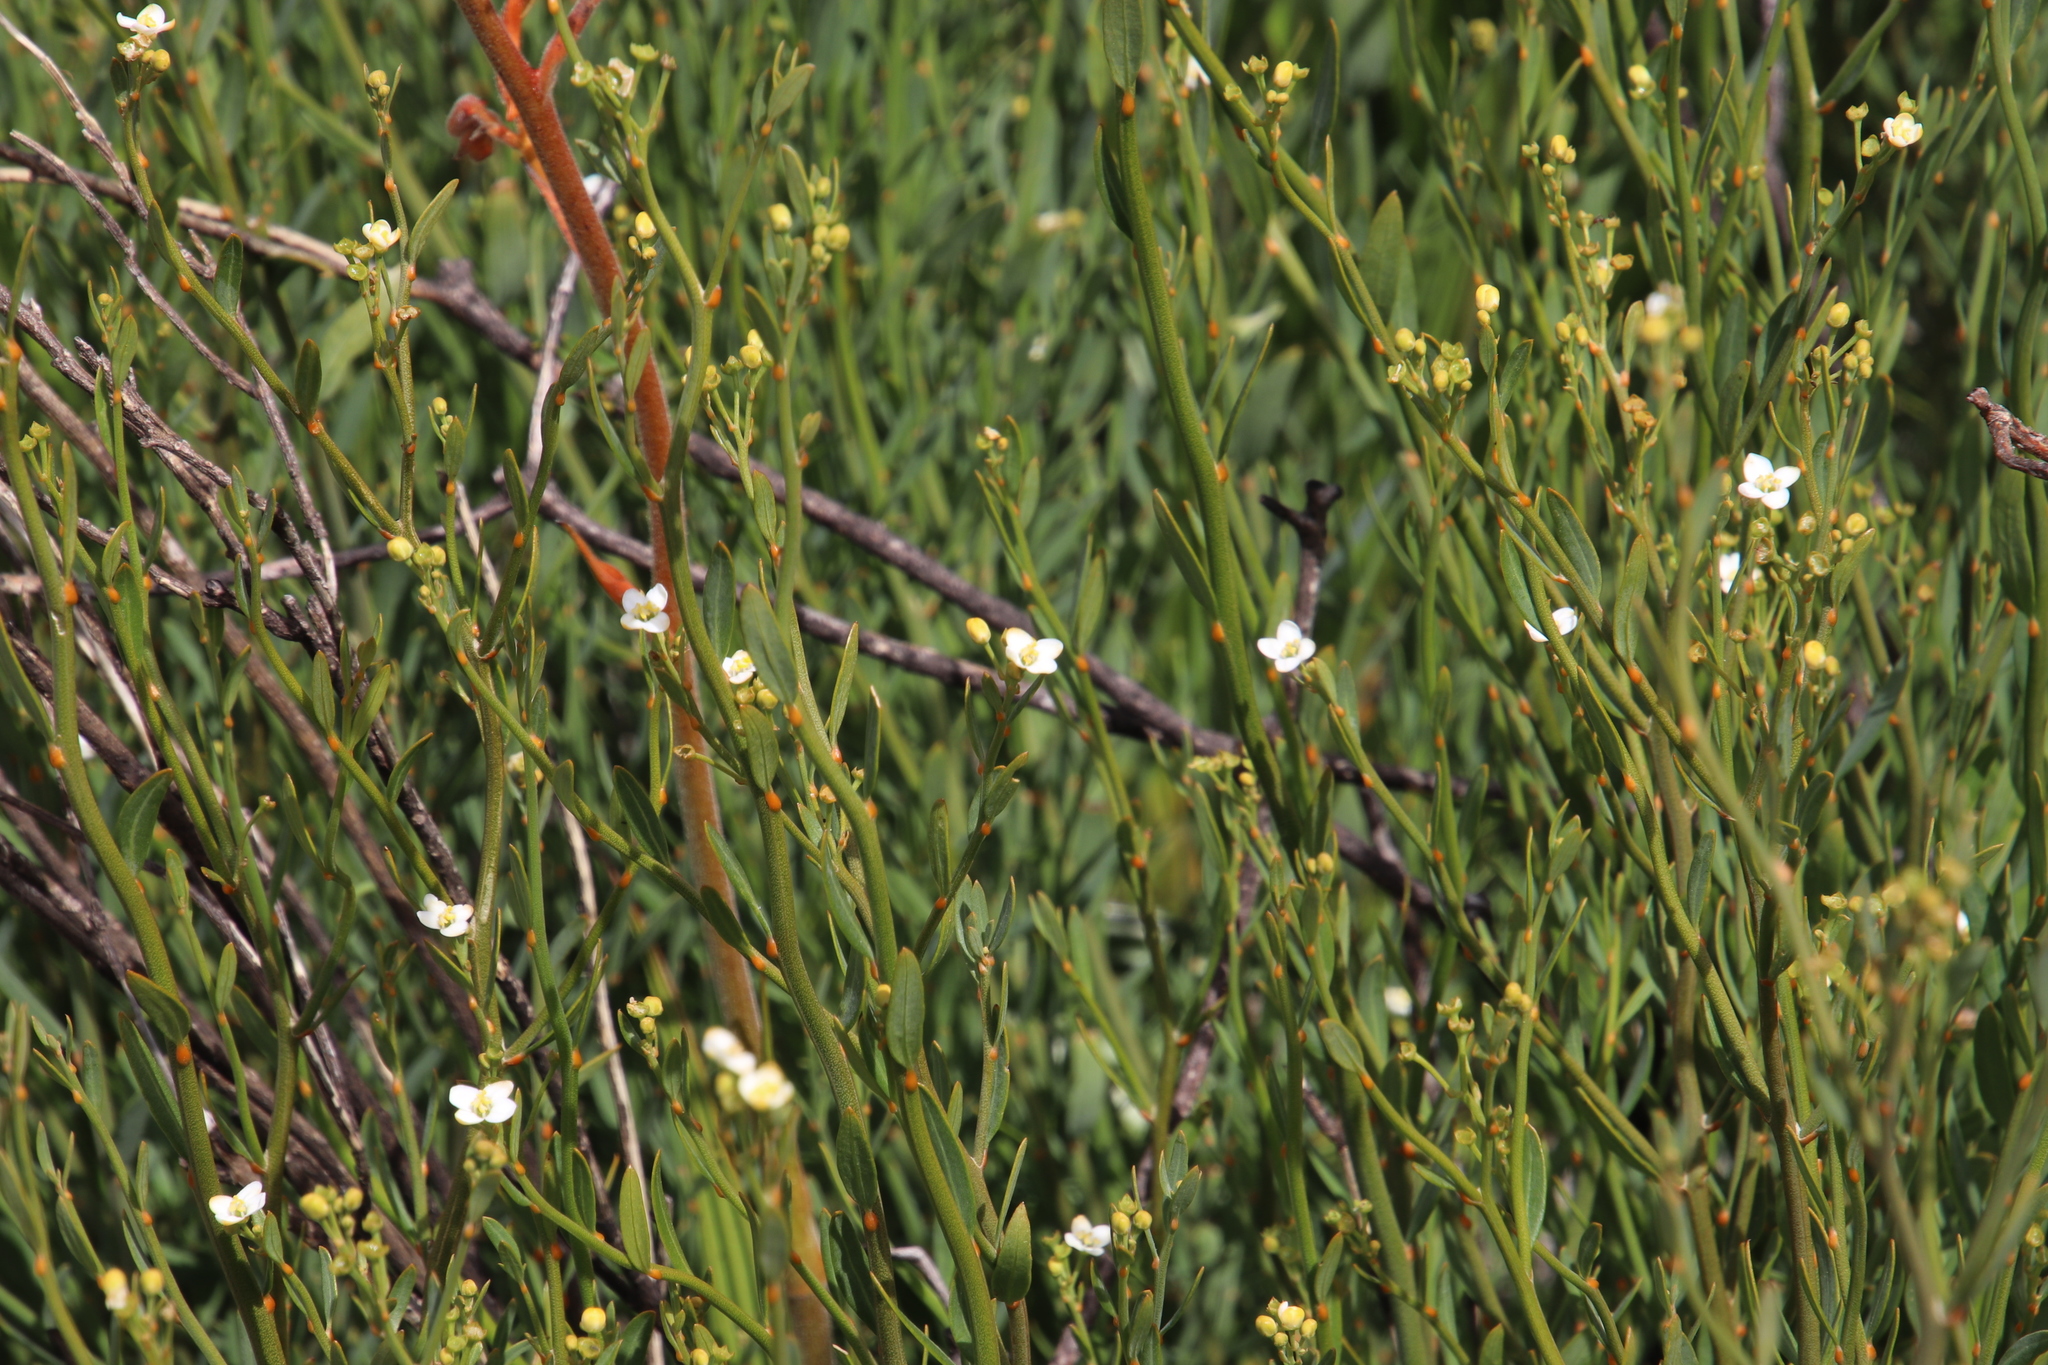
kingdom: Plantae
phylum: Tracheophyta
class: Magnoliopsida
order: Solanales
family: Montiniaceae
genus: Montinia
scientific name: Montinia caryophyllacea
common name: Wild clove-bush
